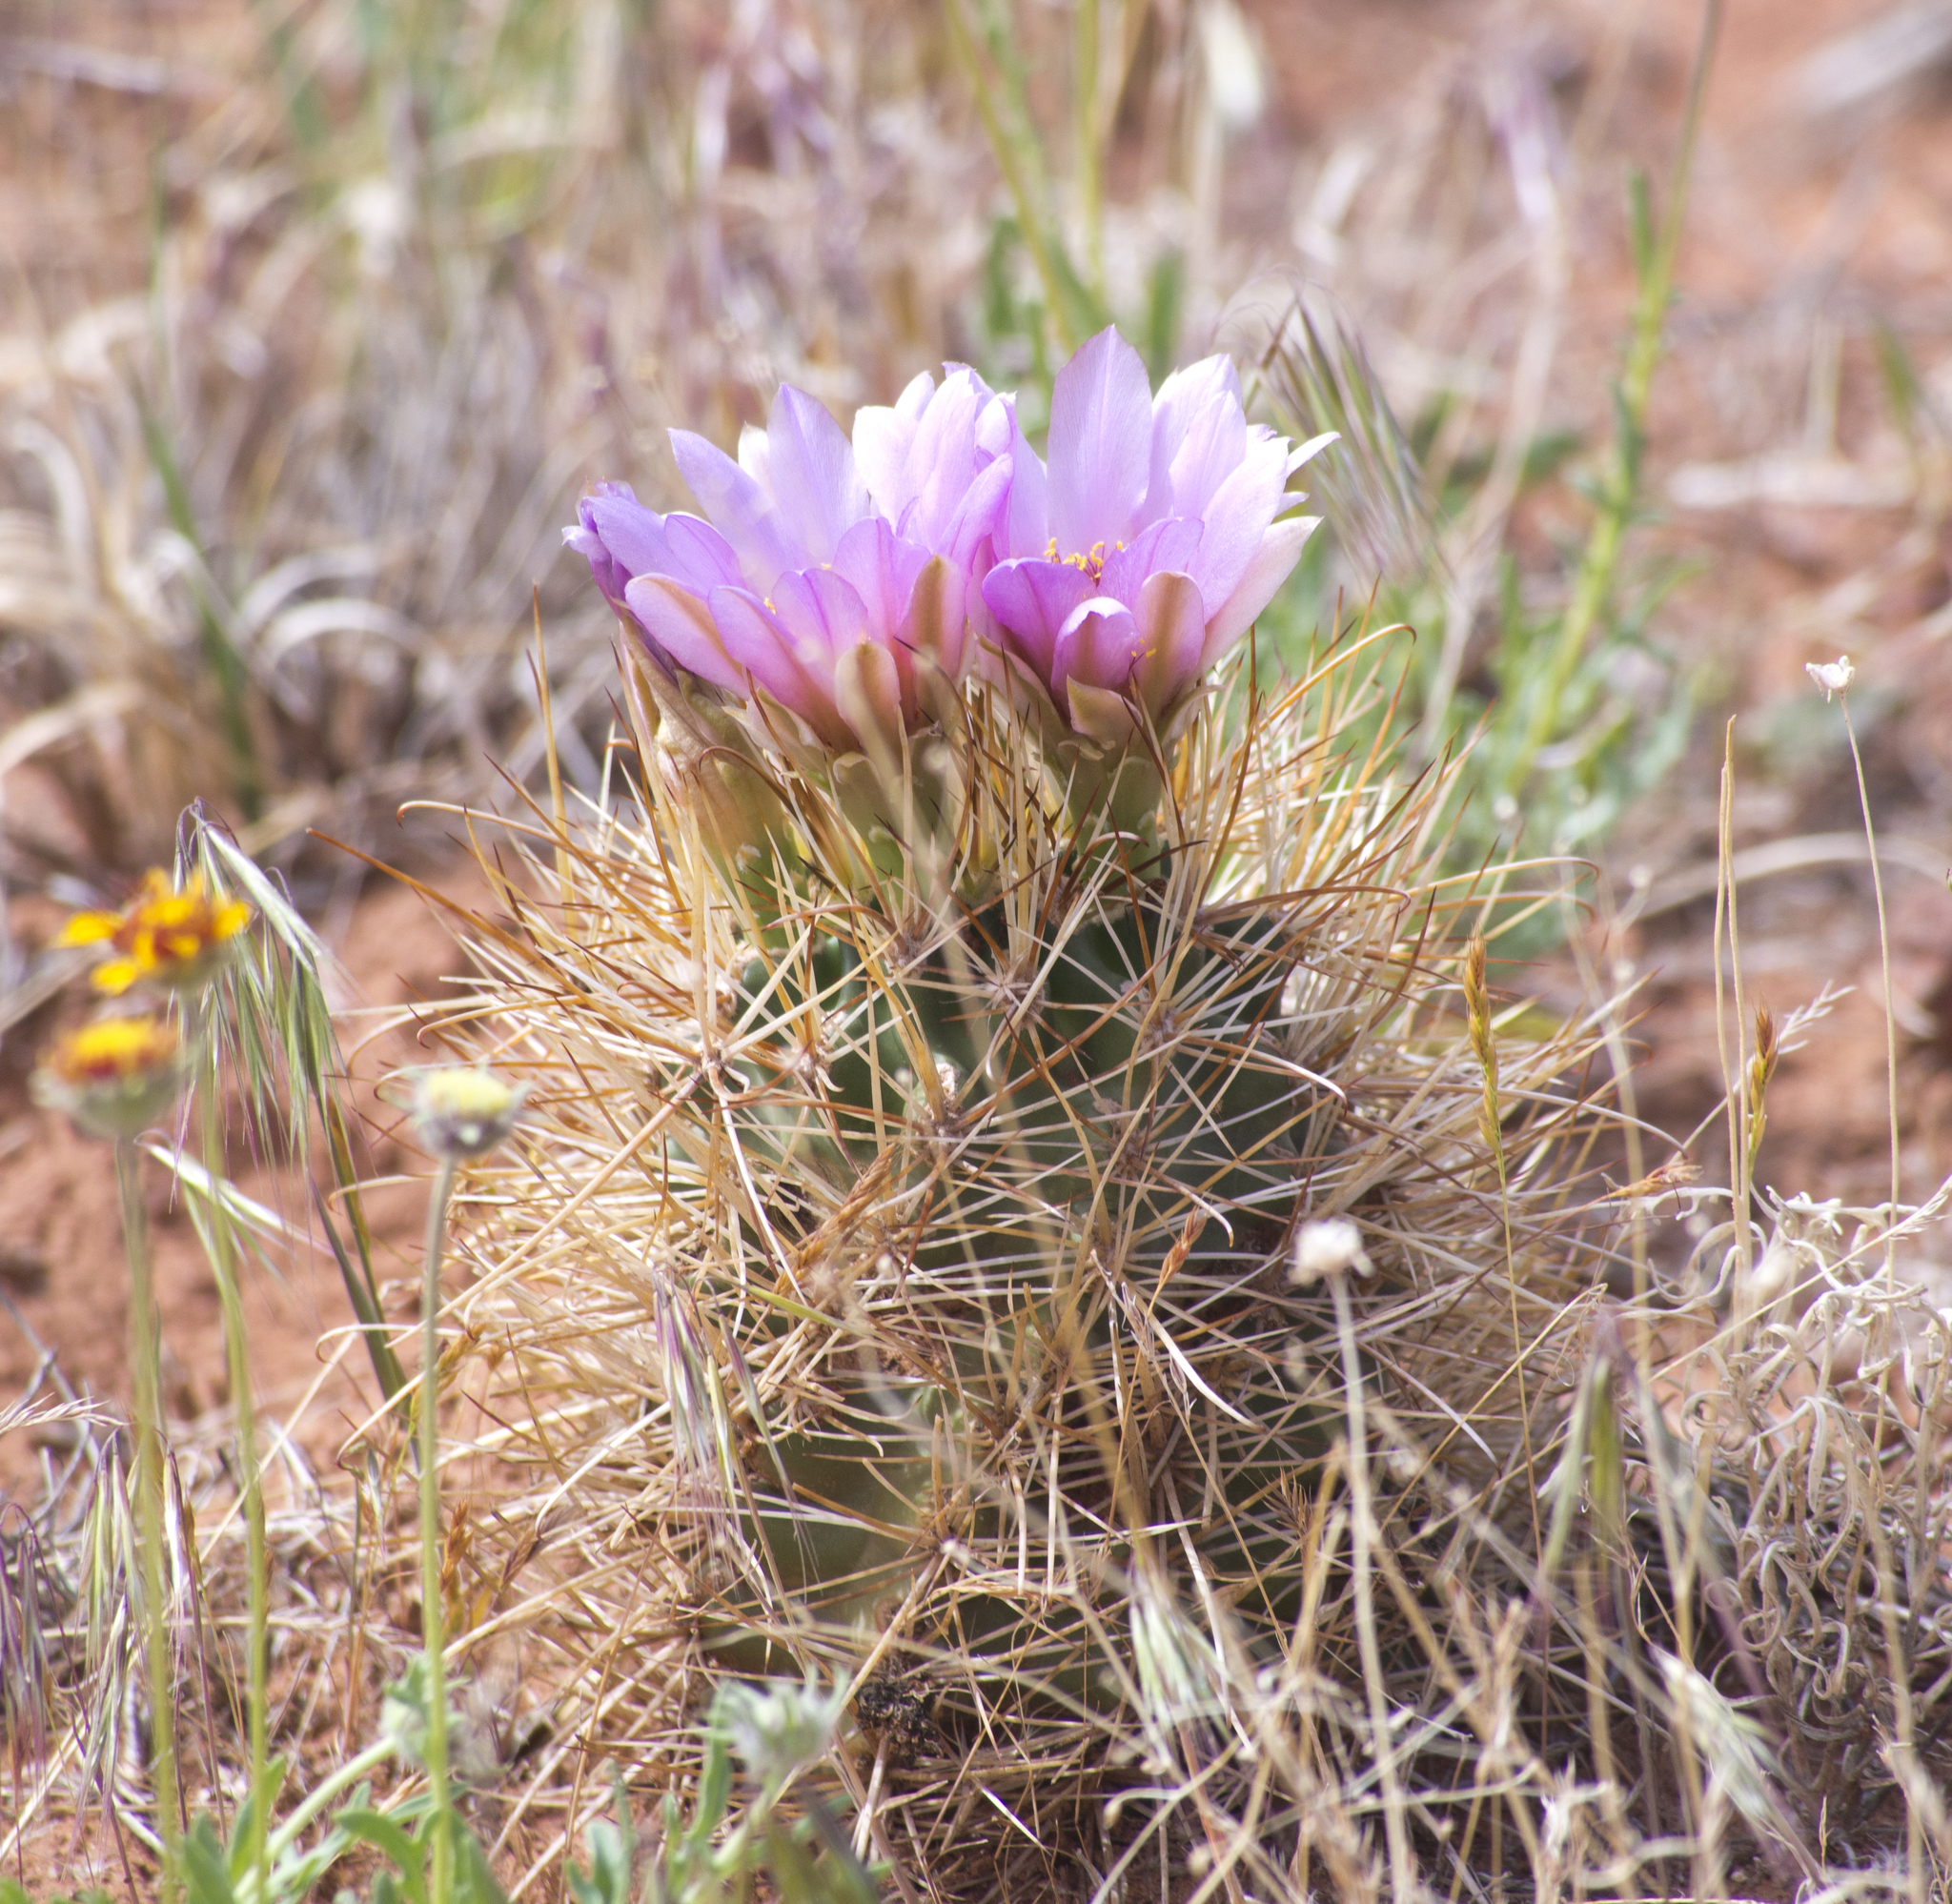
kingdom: Plantae
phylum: Tracheophyta
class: Magnoliopsida
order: Caryophyllales
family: Cactaceae
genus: Sclerocactus
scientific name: Sclerocactus parviflorus
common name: Small-flower fishhook cactus
